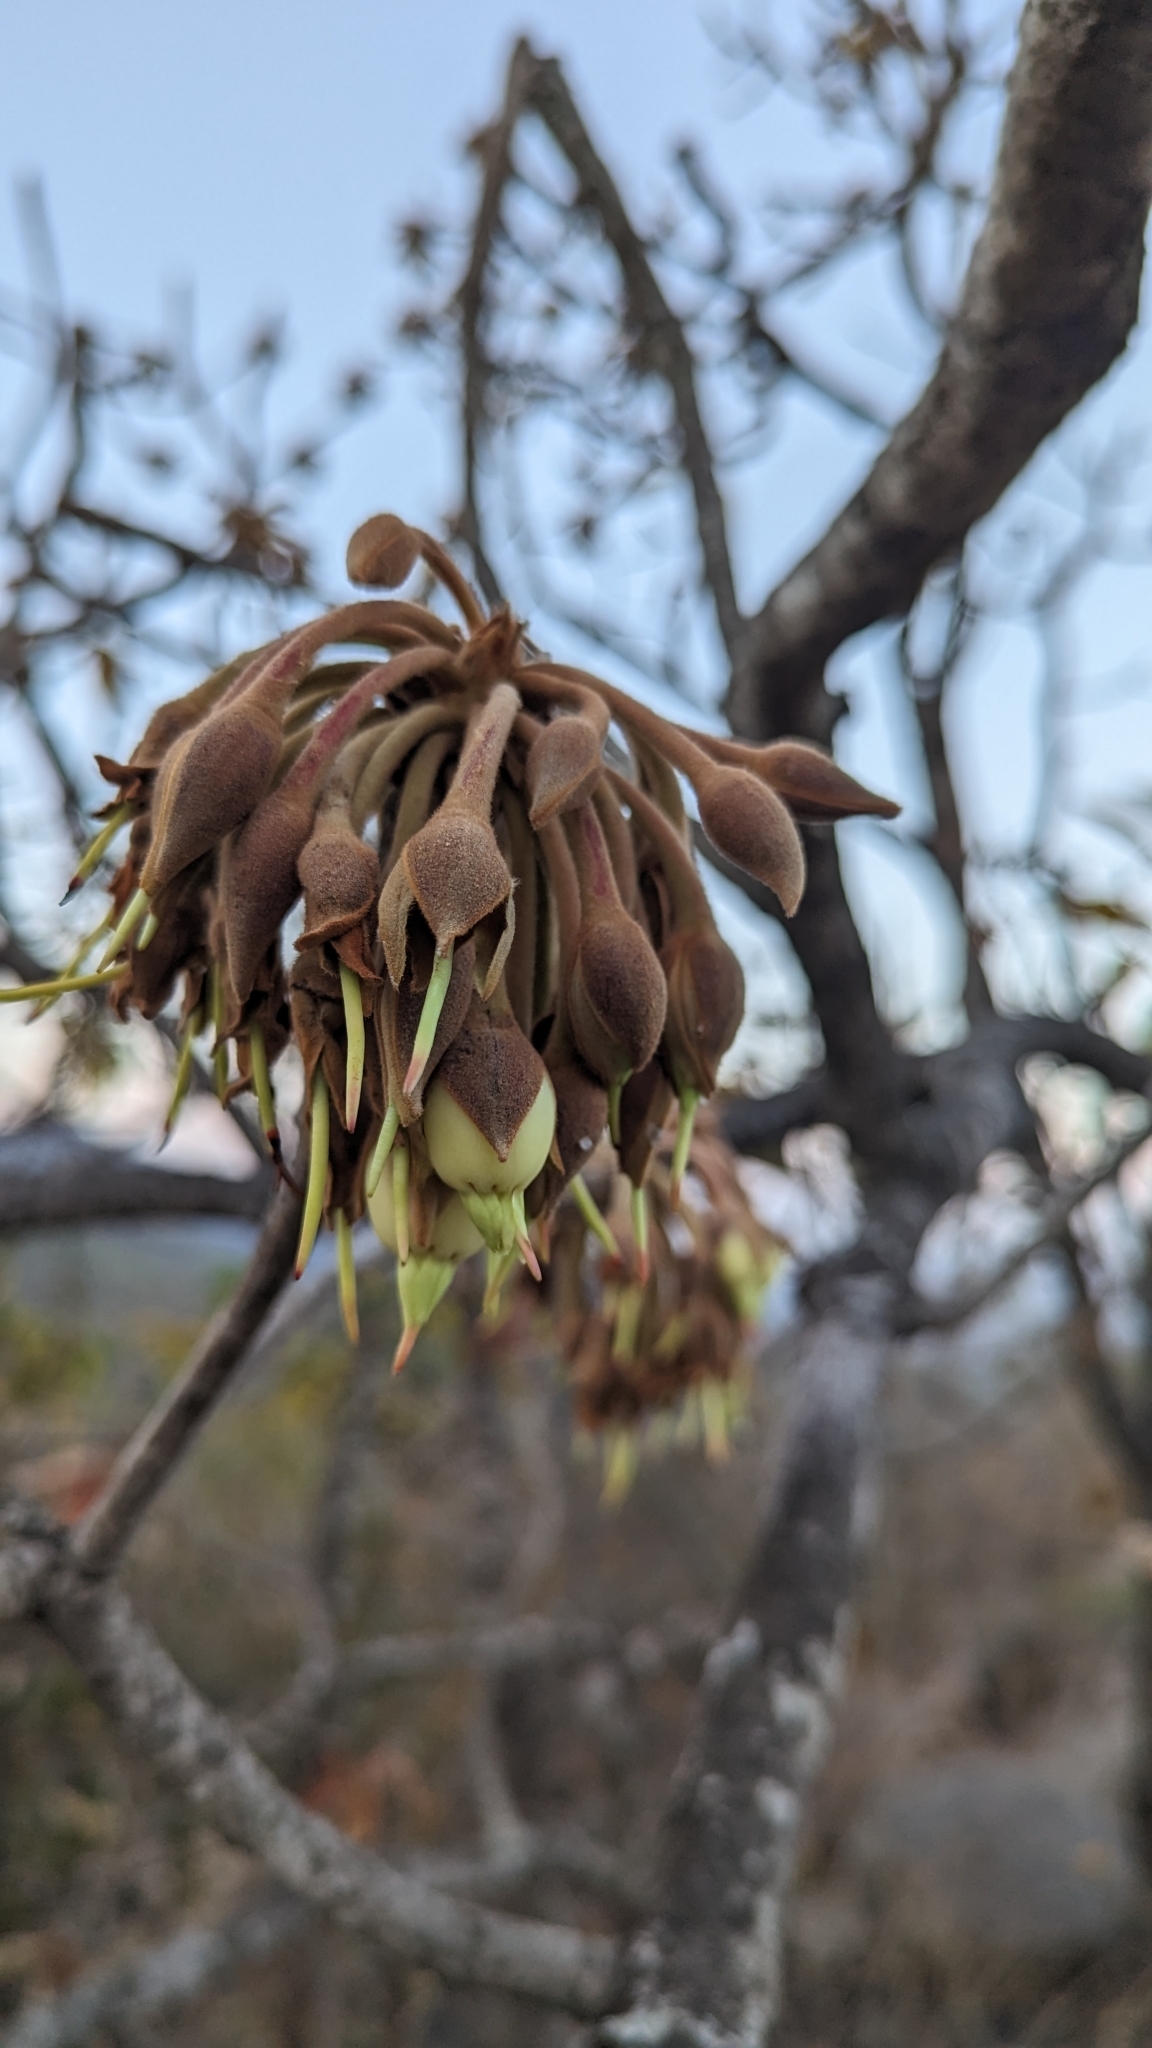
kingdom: Plantae
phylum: Tracheophyta
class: Magnoliopsida
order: Ericales
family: Sapotaceae
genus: Madhuca
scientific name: Madhuca longifolia
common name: Mowra-buttertree
